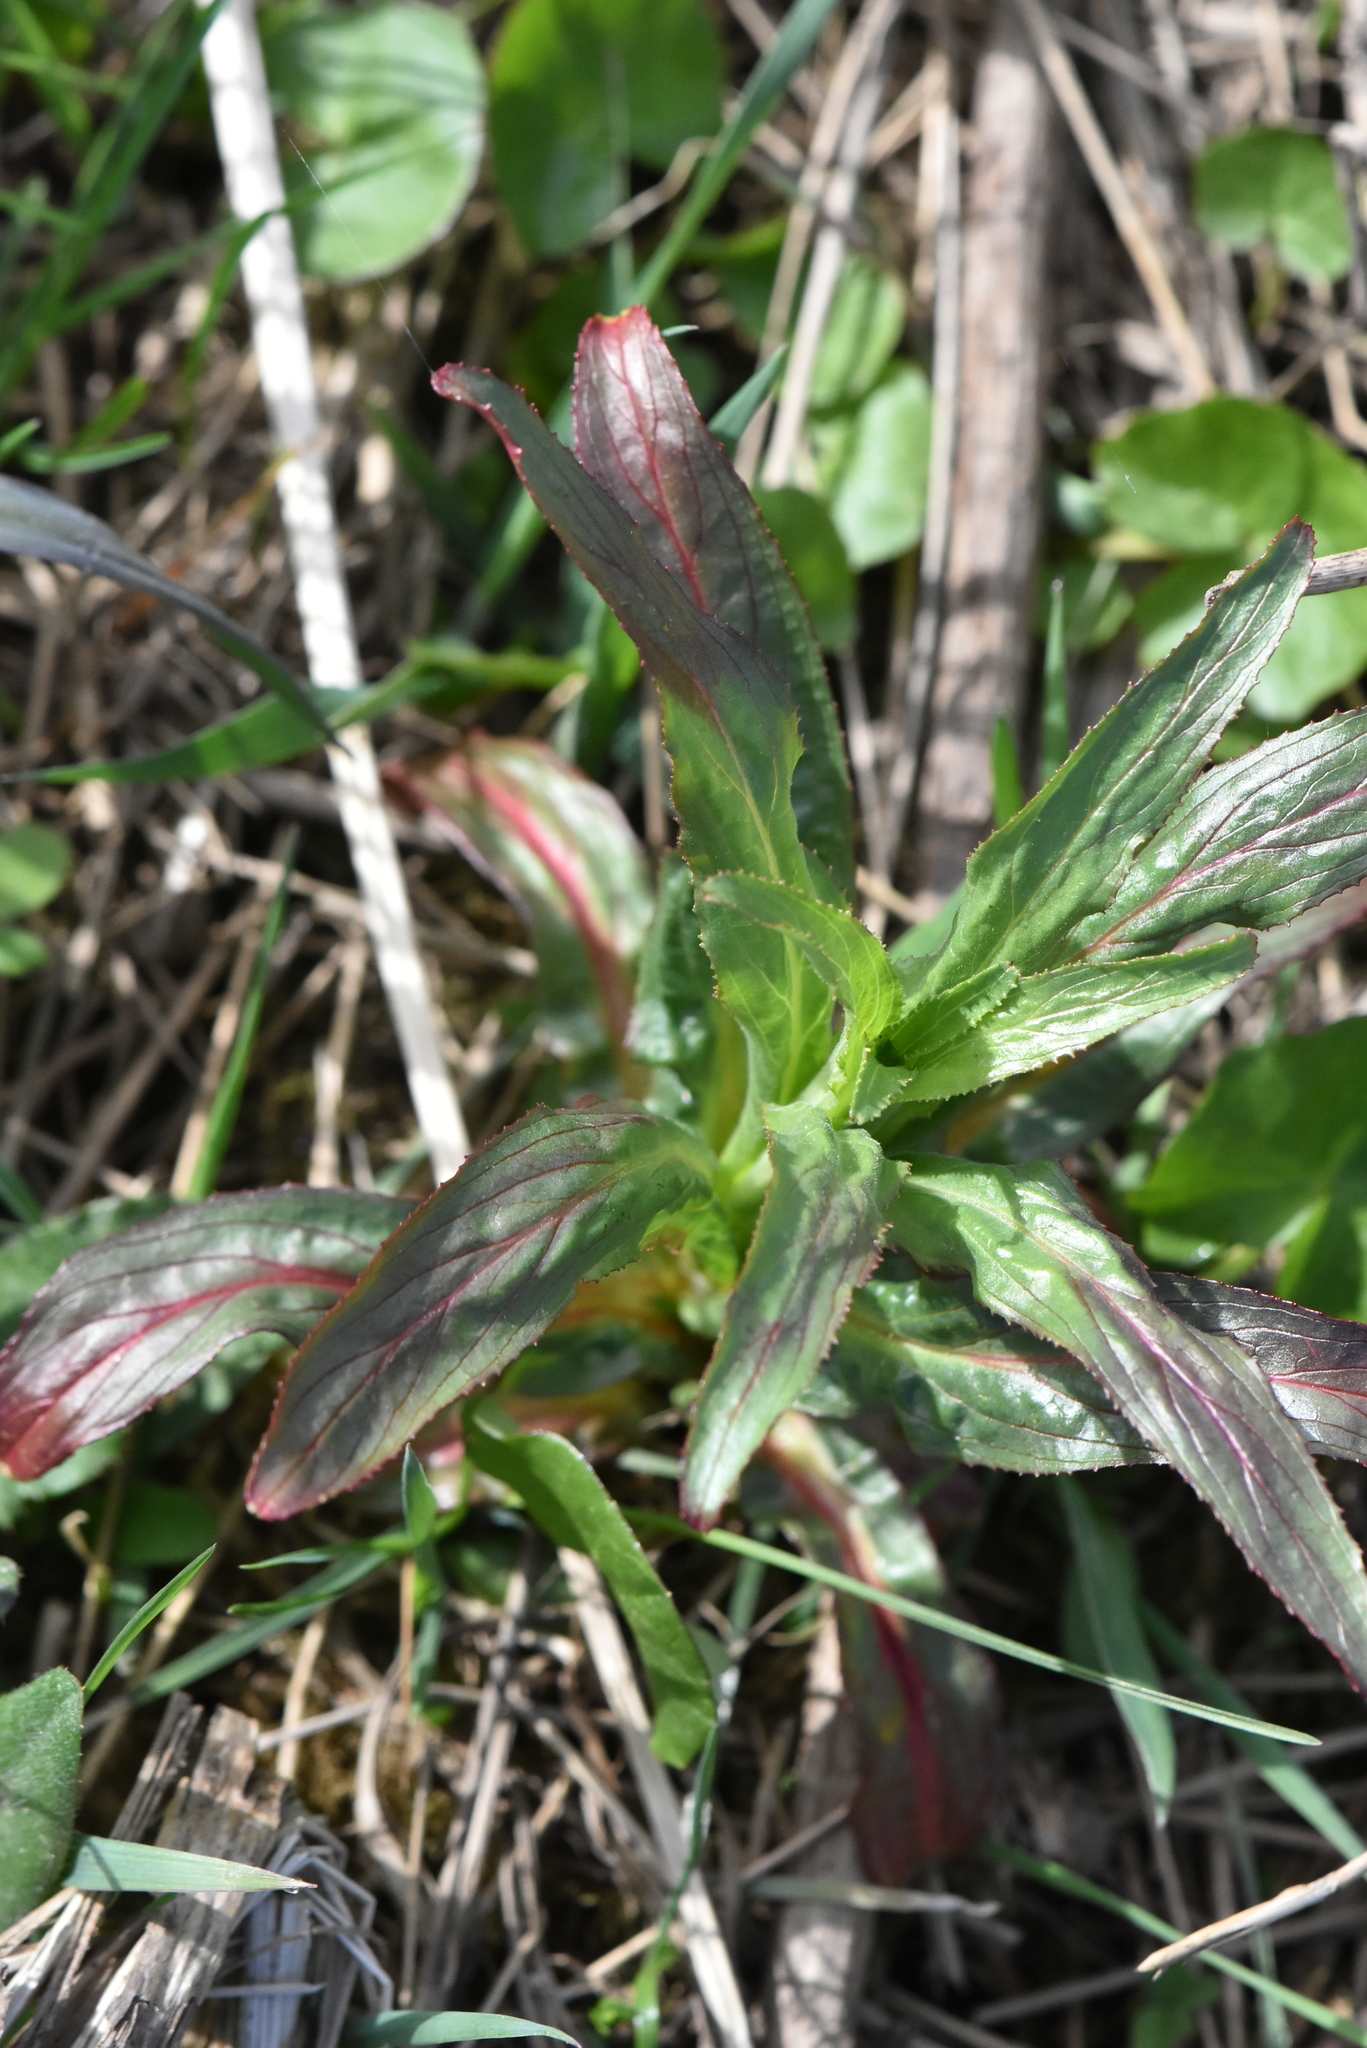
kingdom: Plantae
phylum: Tracheophyta
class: Magnoliopsida
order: Myrtales
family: Onagraceae
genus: Epilobium
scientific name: Epilobium hirsutum
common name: Great willowherb
